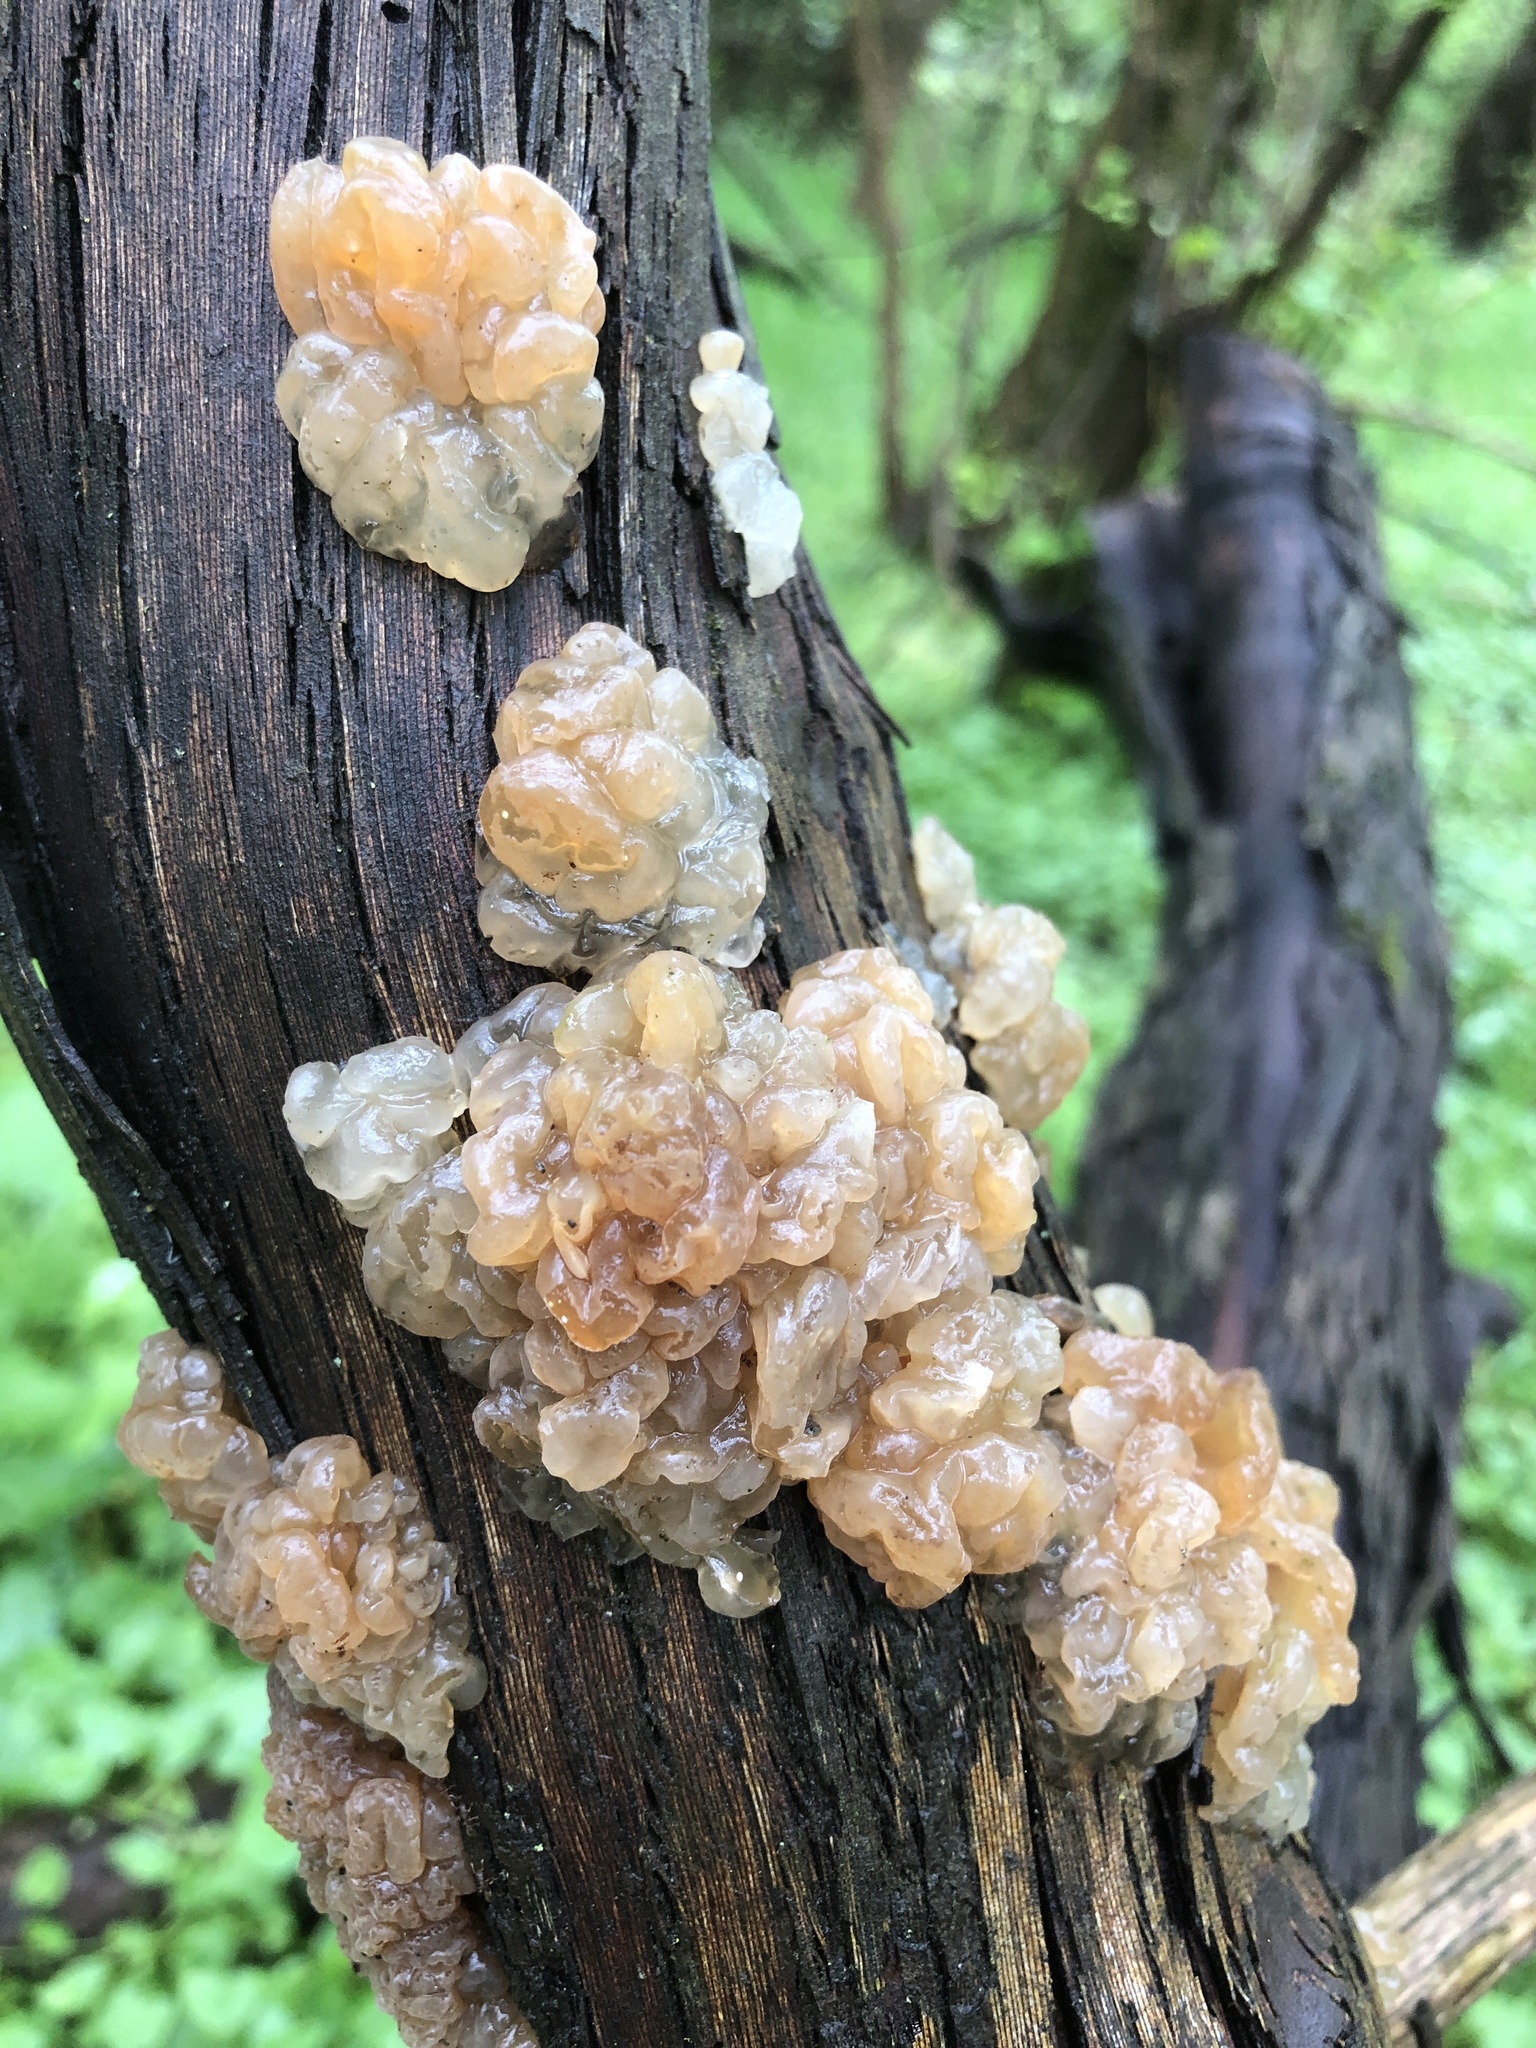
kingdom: Fungi
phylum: Basidiomycota
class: Agaricomycetes
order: Auriculariales
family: Hyaloriaceae
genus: Myxarium
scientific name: Myxarium nucleatum
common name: Crystal brain fungus
